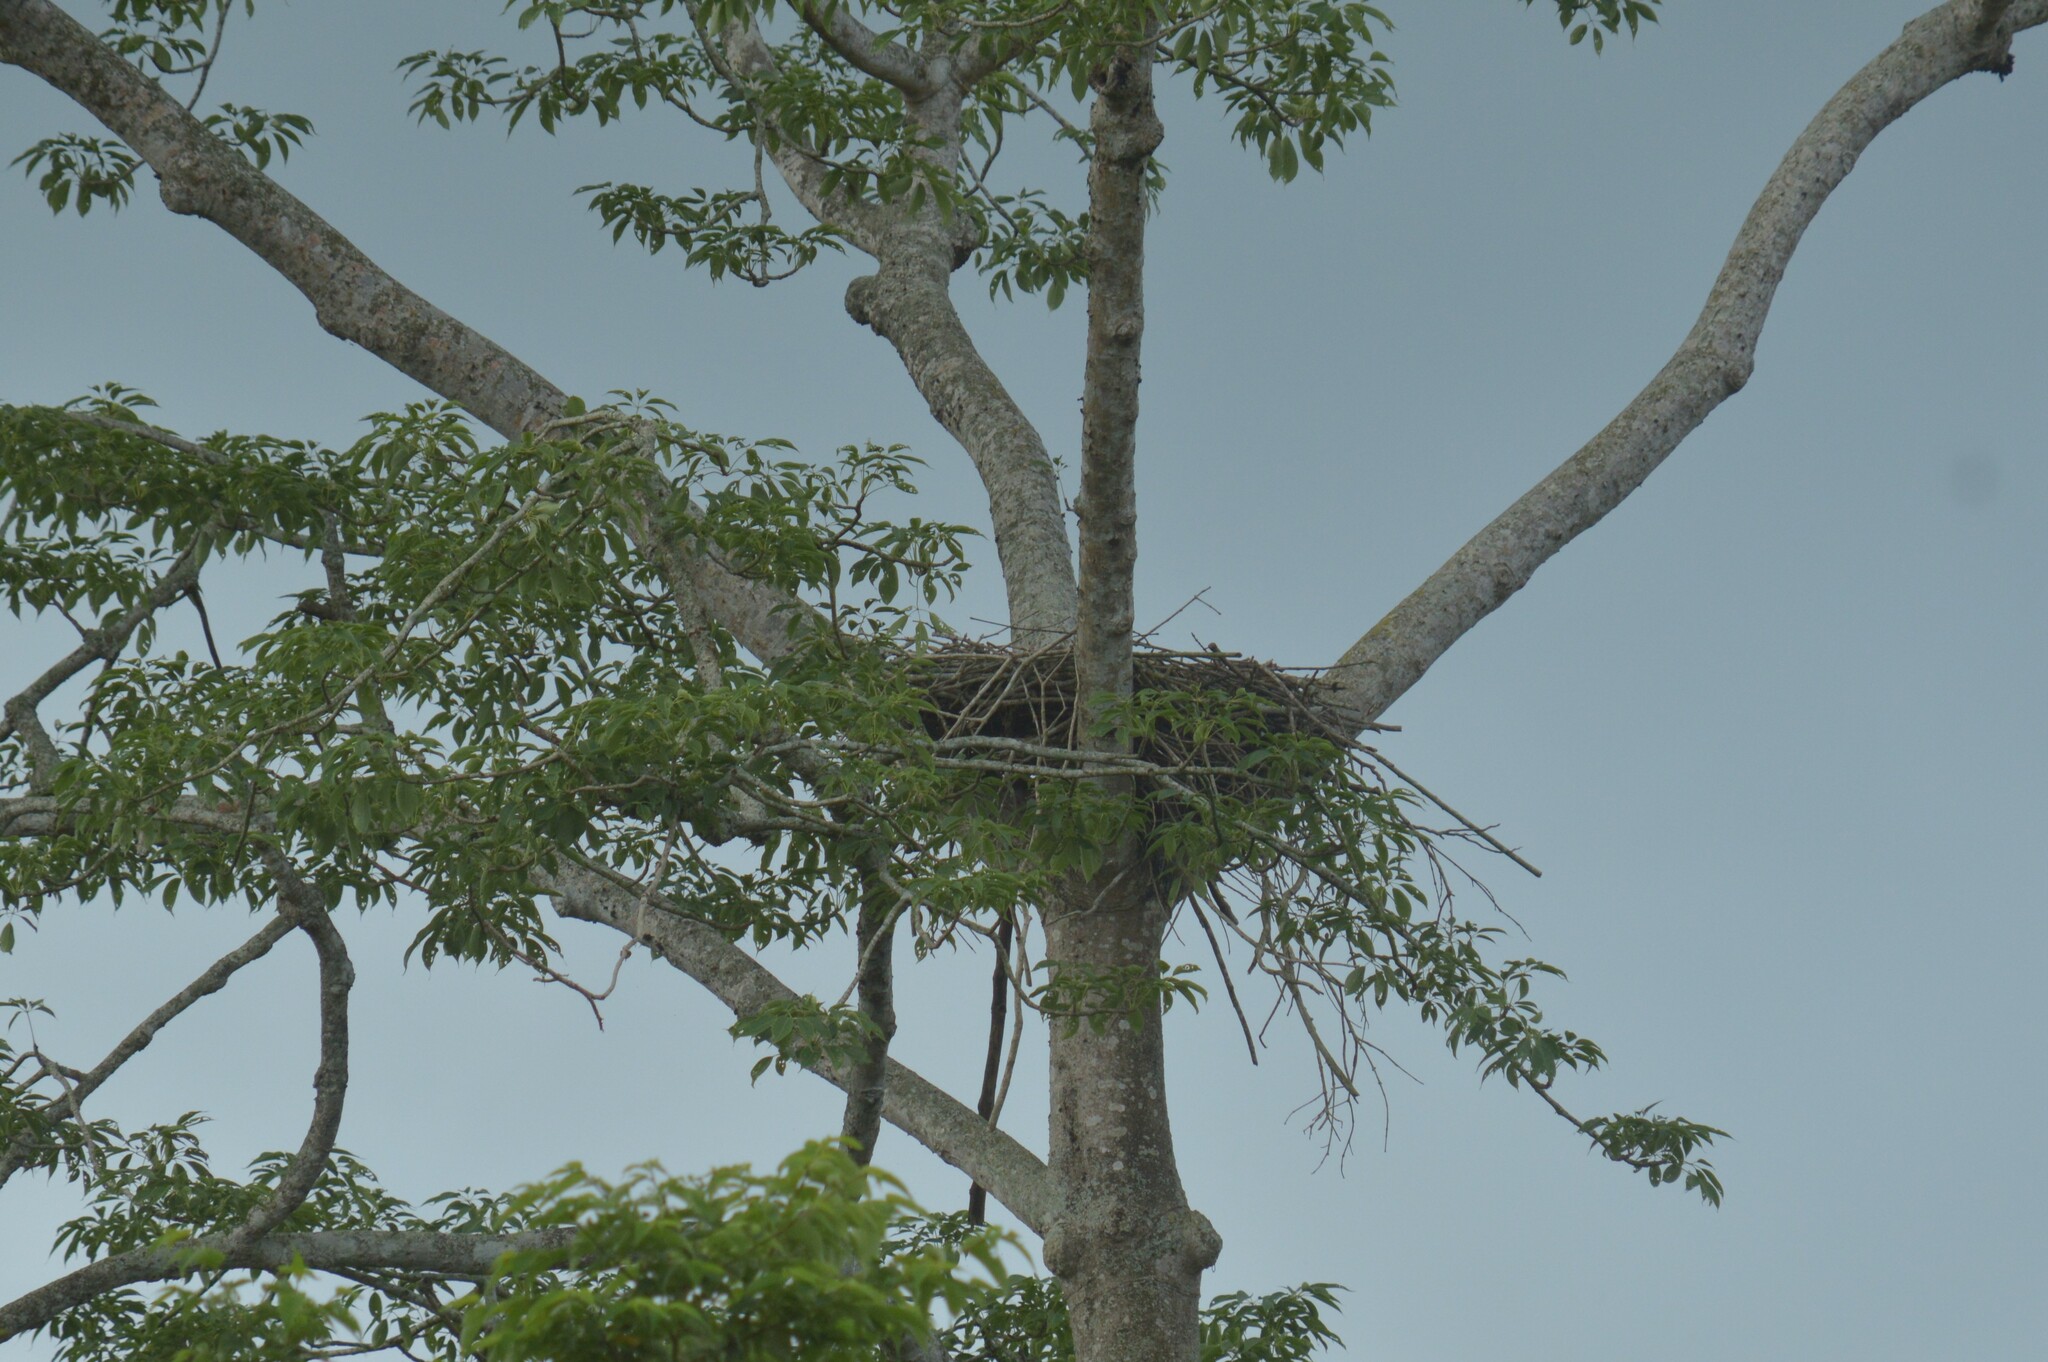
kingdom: Plantae
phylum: Tracheophyta
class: Magnoliopsida
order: Malvales
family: Malvaceae
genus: Bombax
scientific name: Bombax ceiba
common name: Northern-cottonwood
